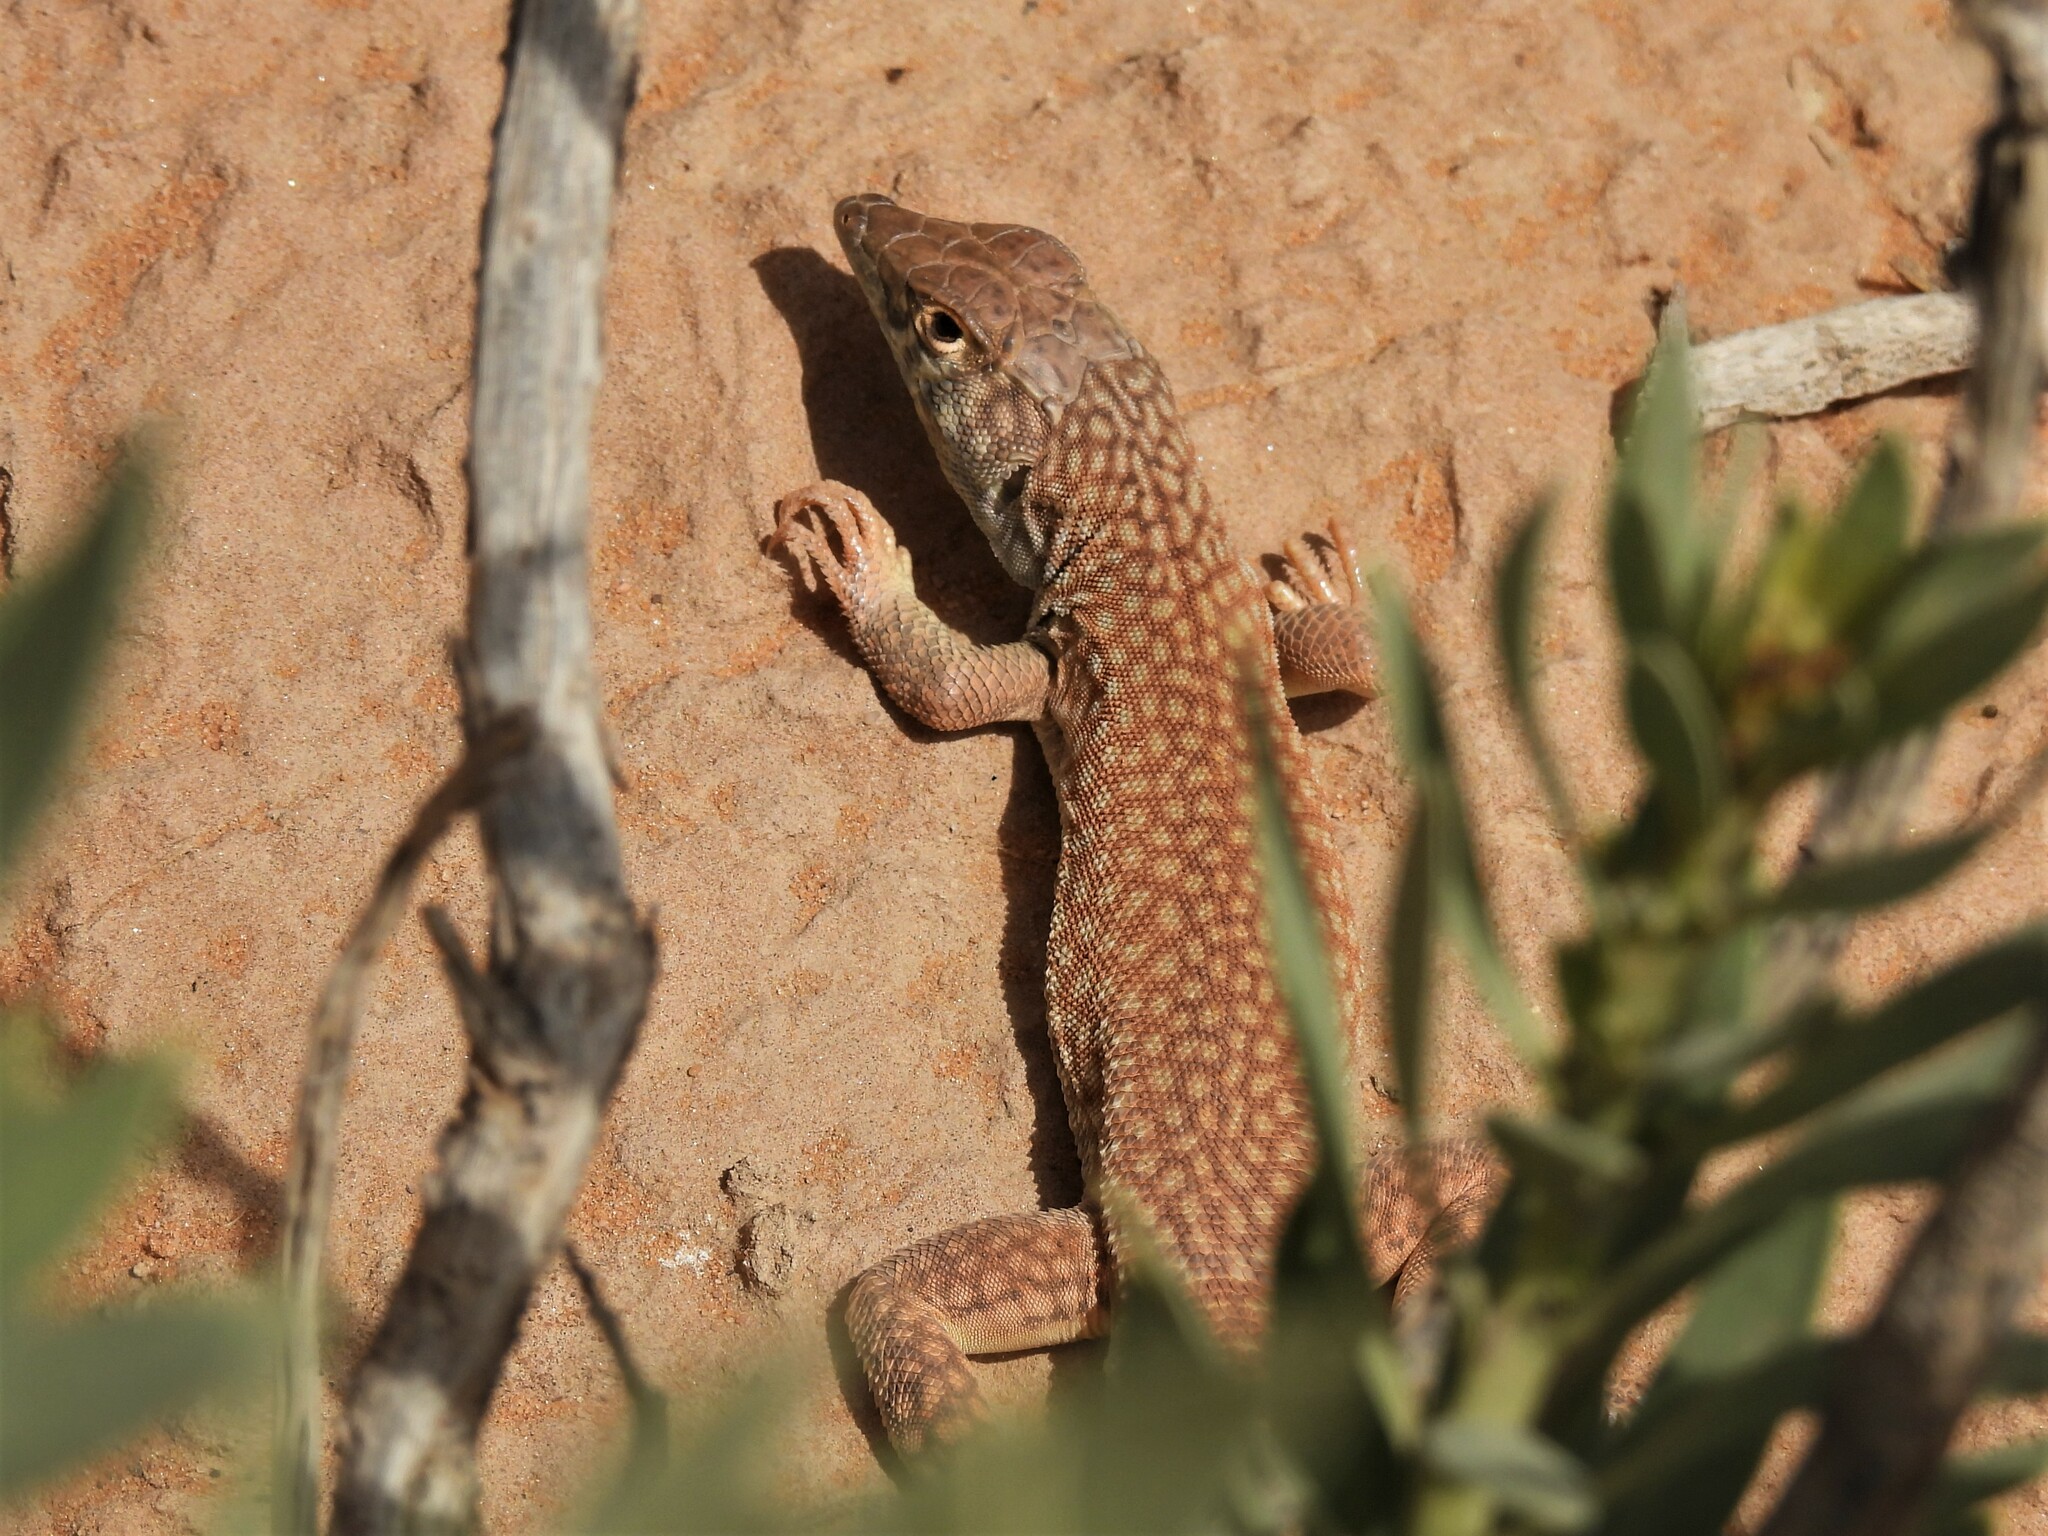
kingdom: Animalia
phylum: Chordata
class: Squamata
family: Lacertidae
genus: Acanthodactylus
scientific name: Acanthodactylus schmidti
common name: Schmidt's fringe-toed lizard
